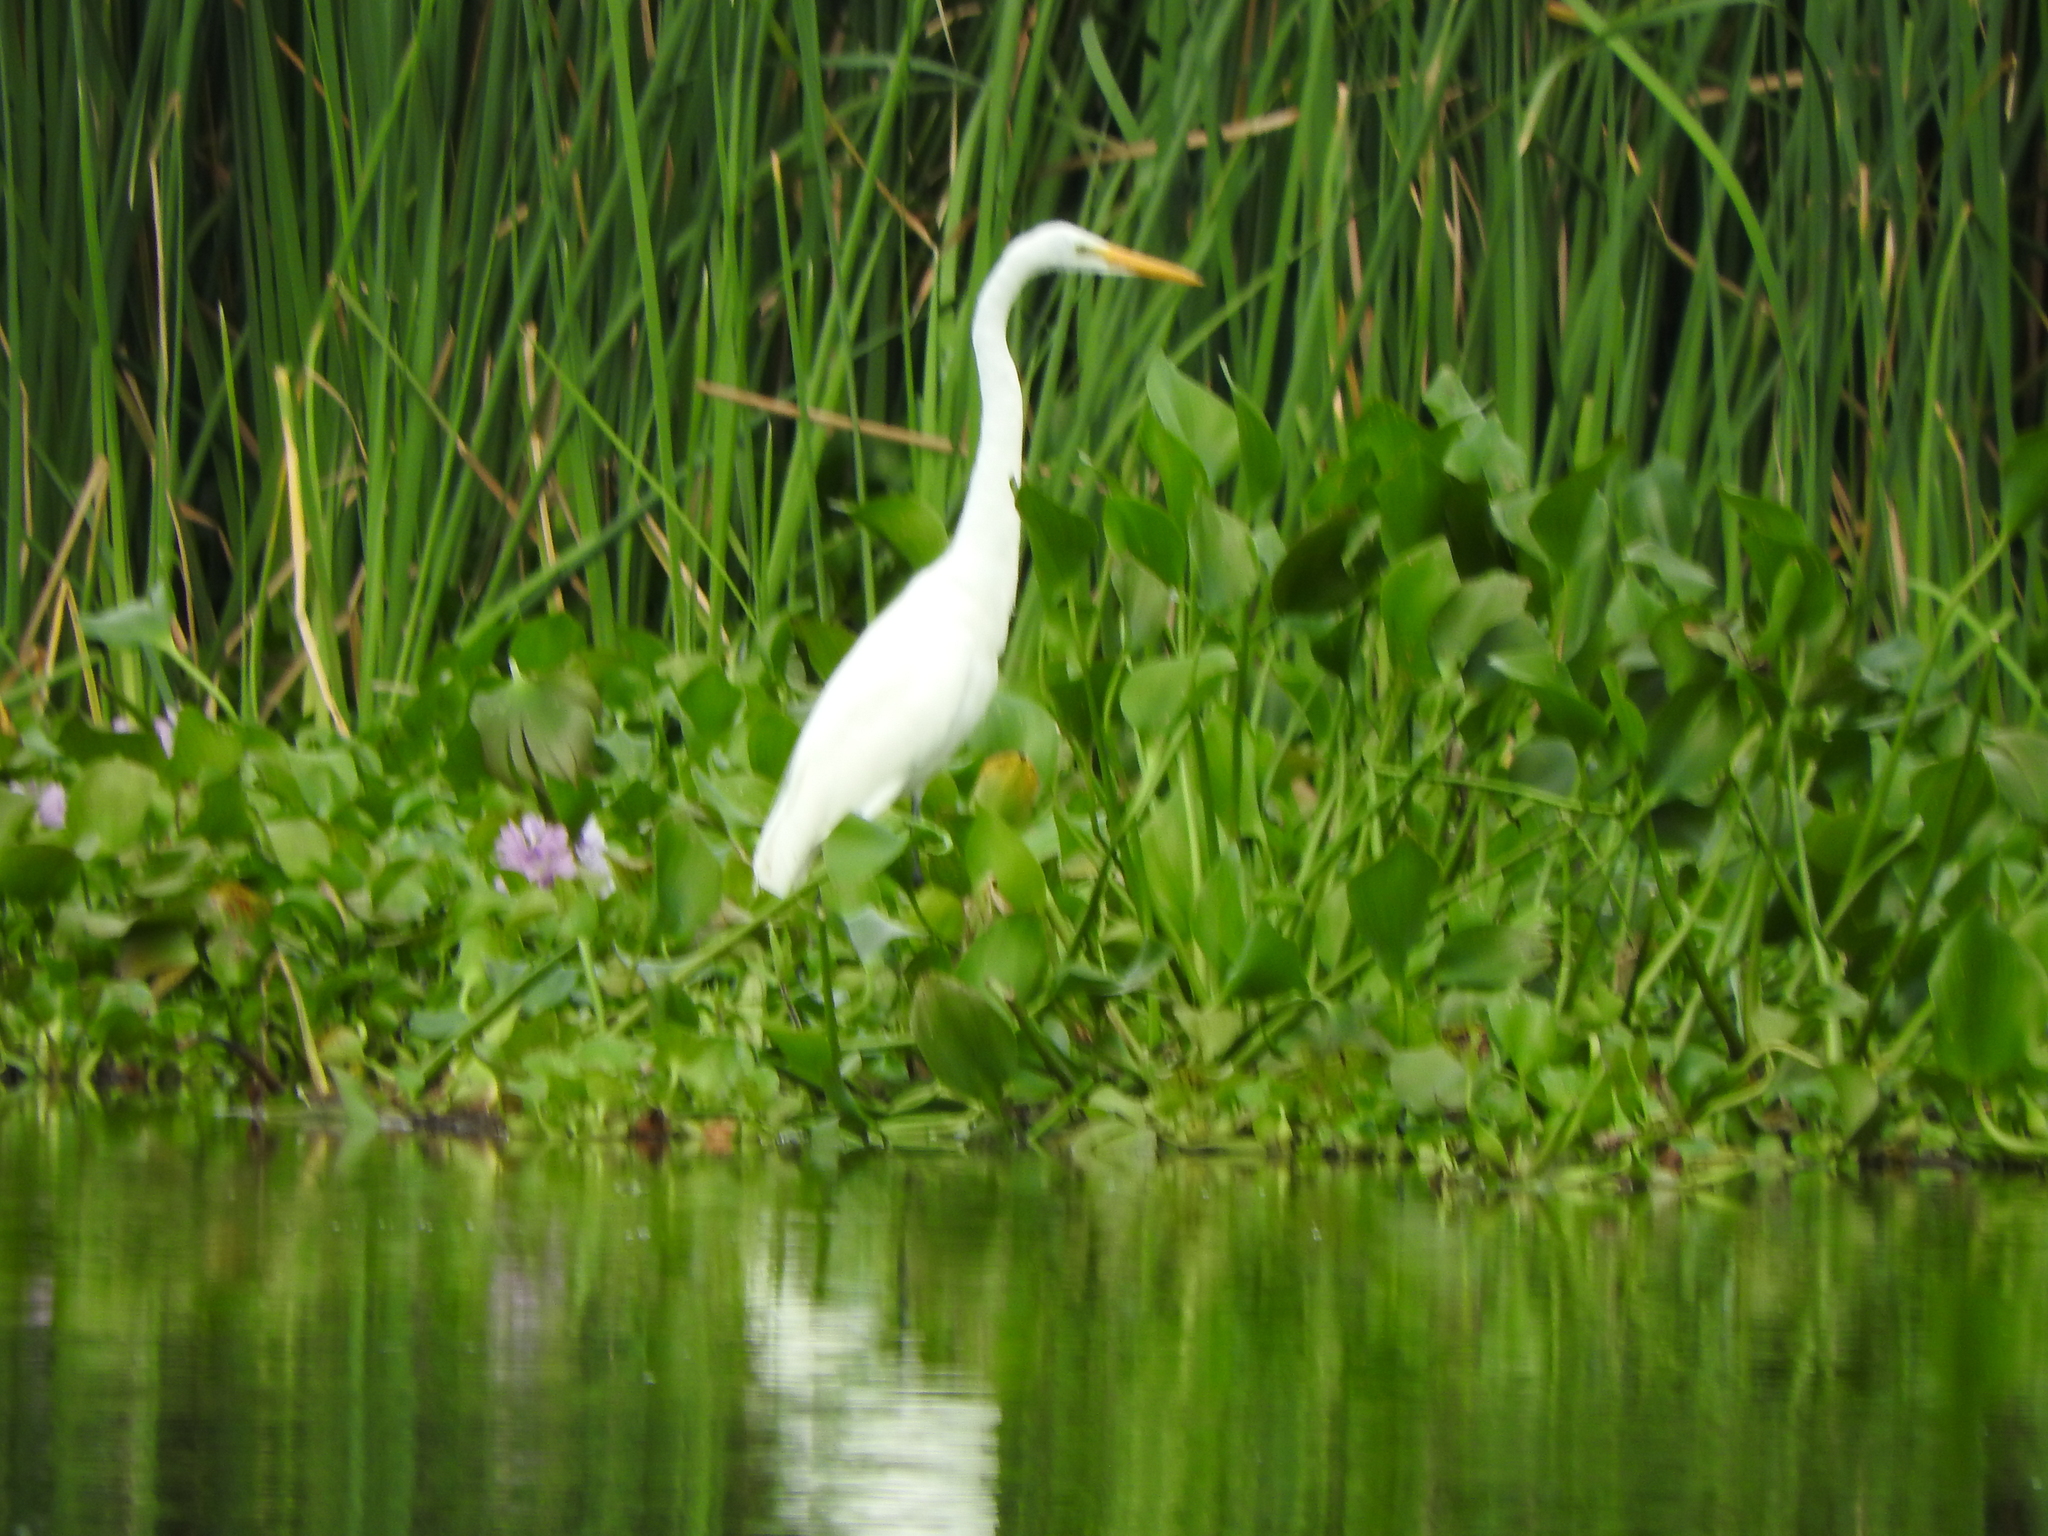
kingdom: Animalia
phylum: Chordata
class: Aves
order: Pelecaniformes
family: Ardeidae
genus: Ardea
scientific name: Ardea alba
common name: Great egret
